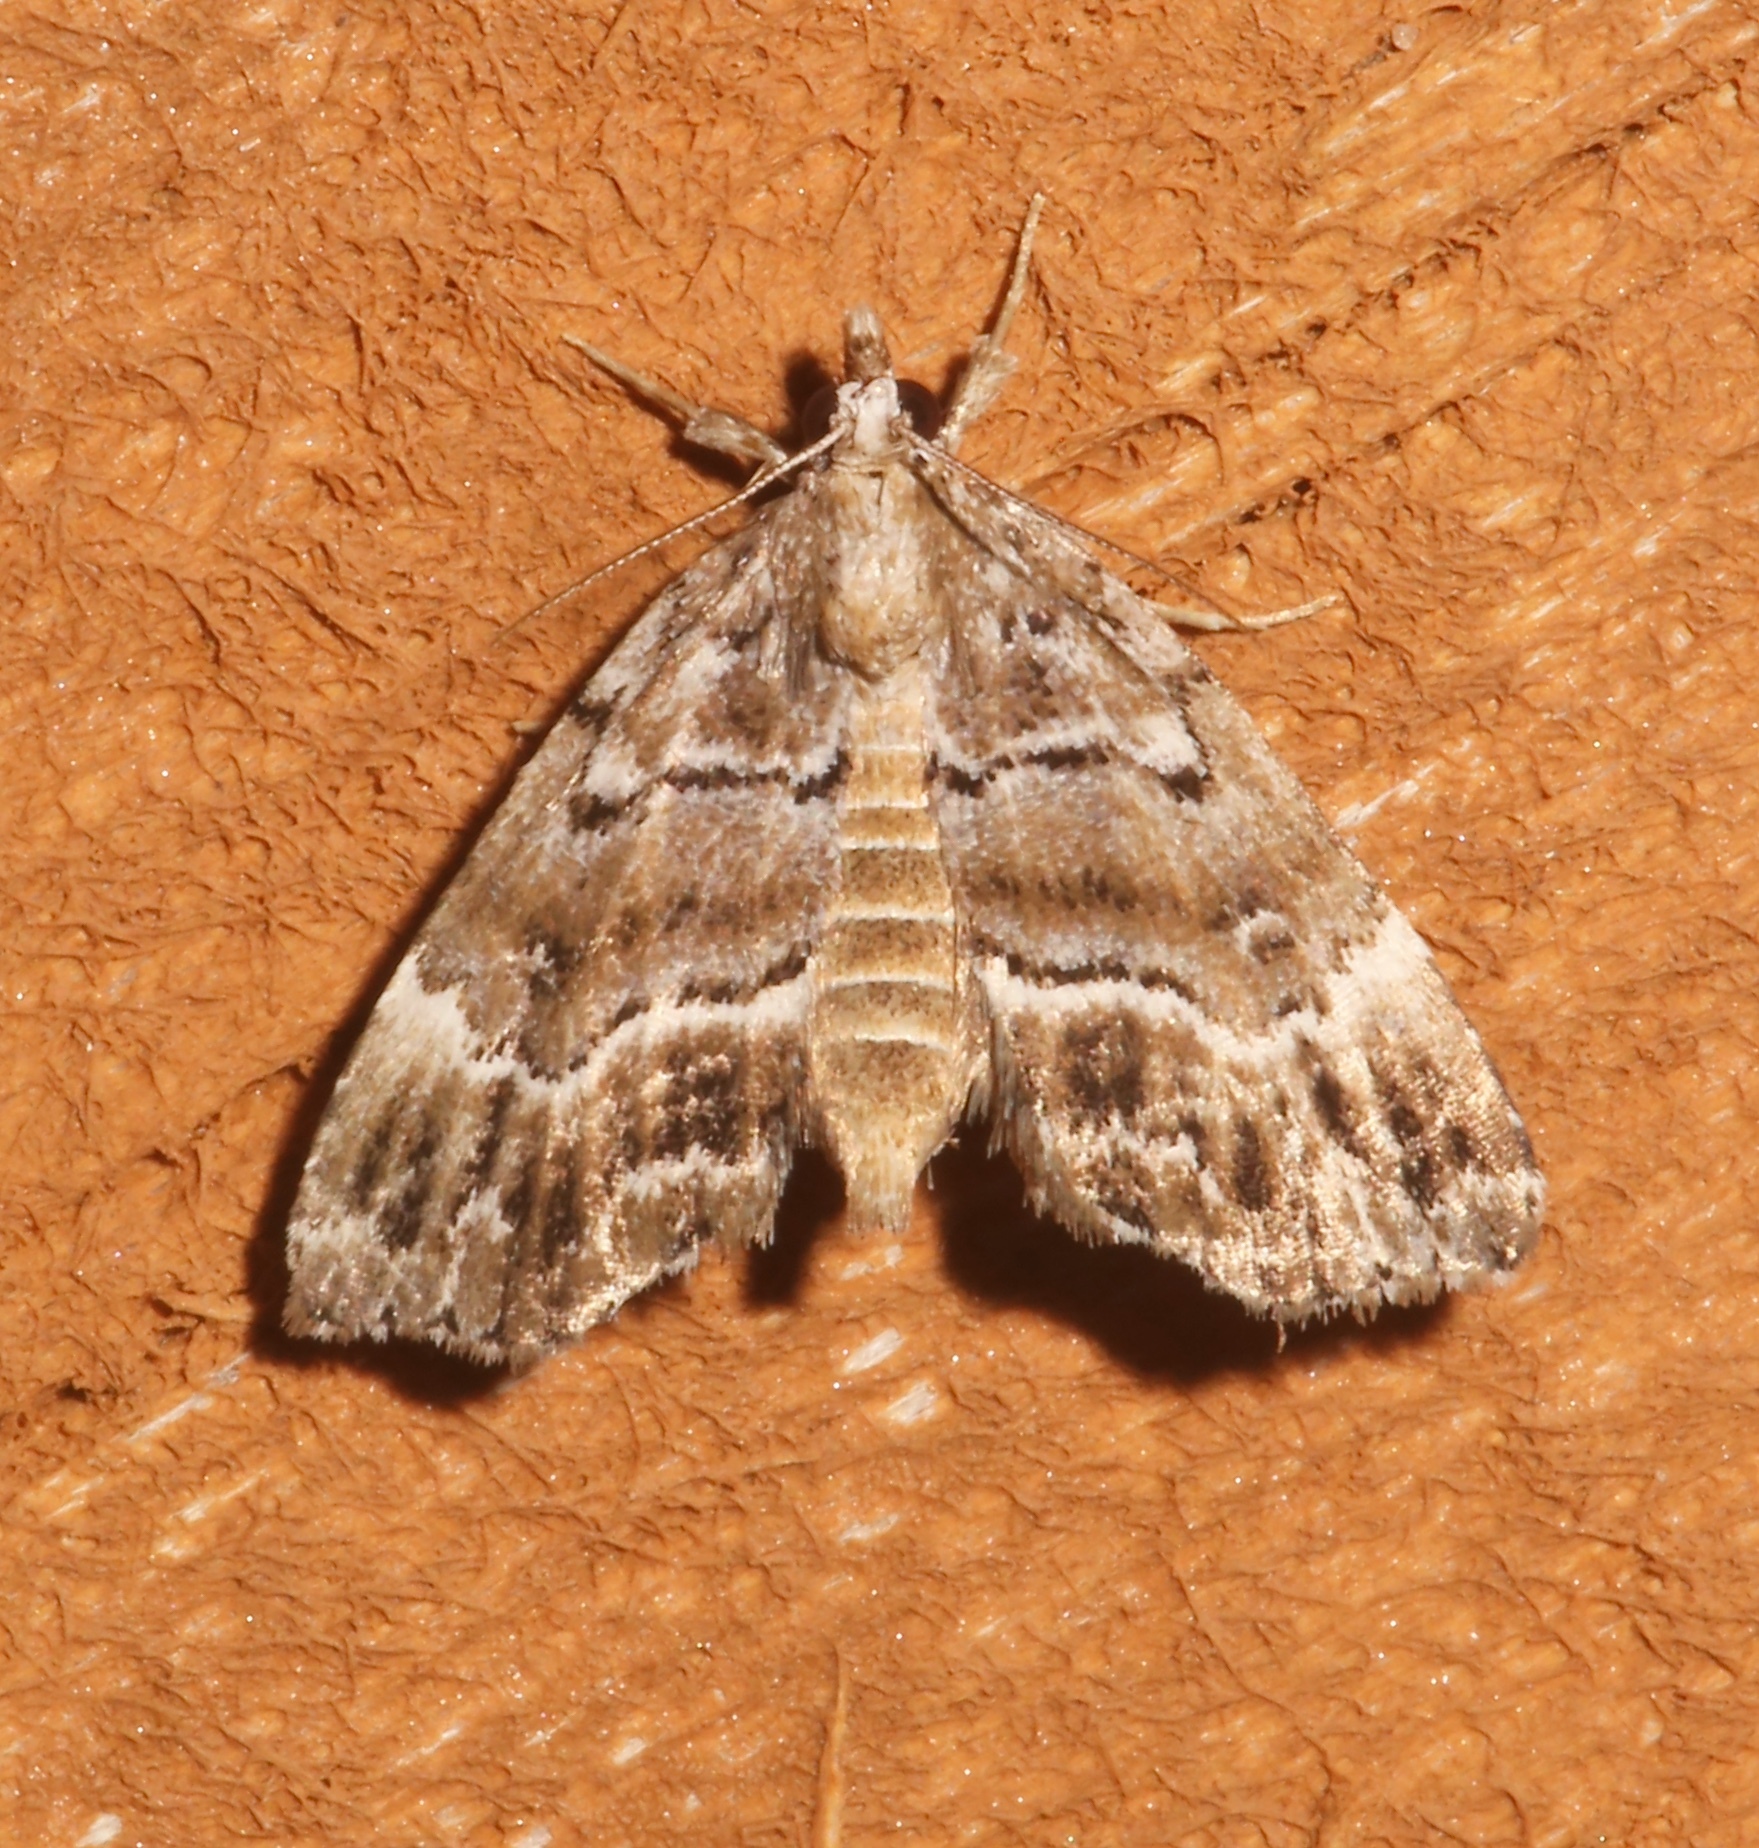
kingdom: Animalia
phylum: Arthropoda
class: Insecta
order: Lepidoptera
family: Erebidae
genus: Cutina
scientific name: Cutina arcuata
